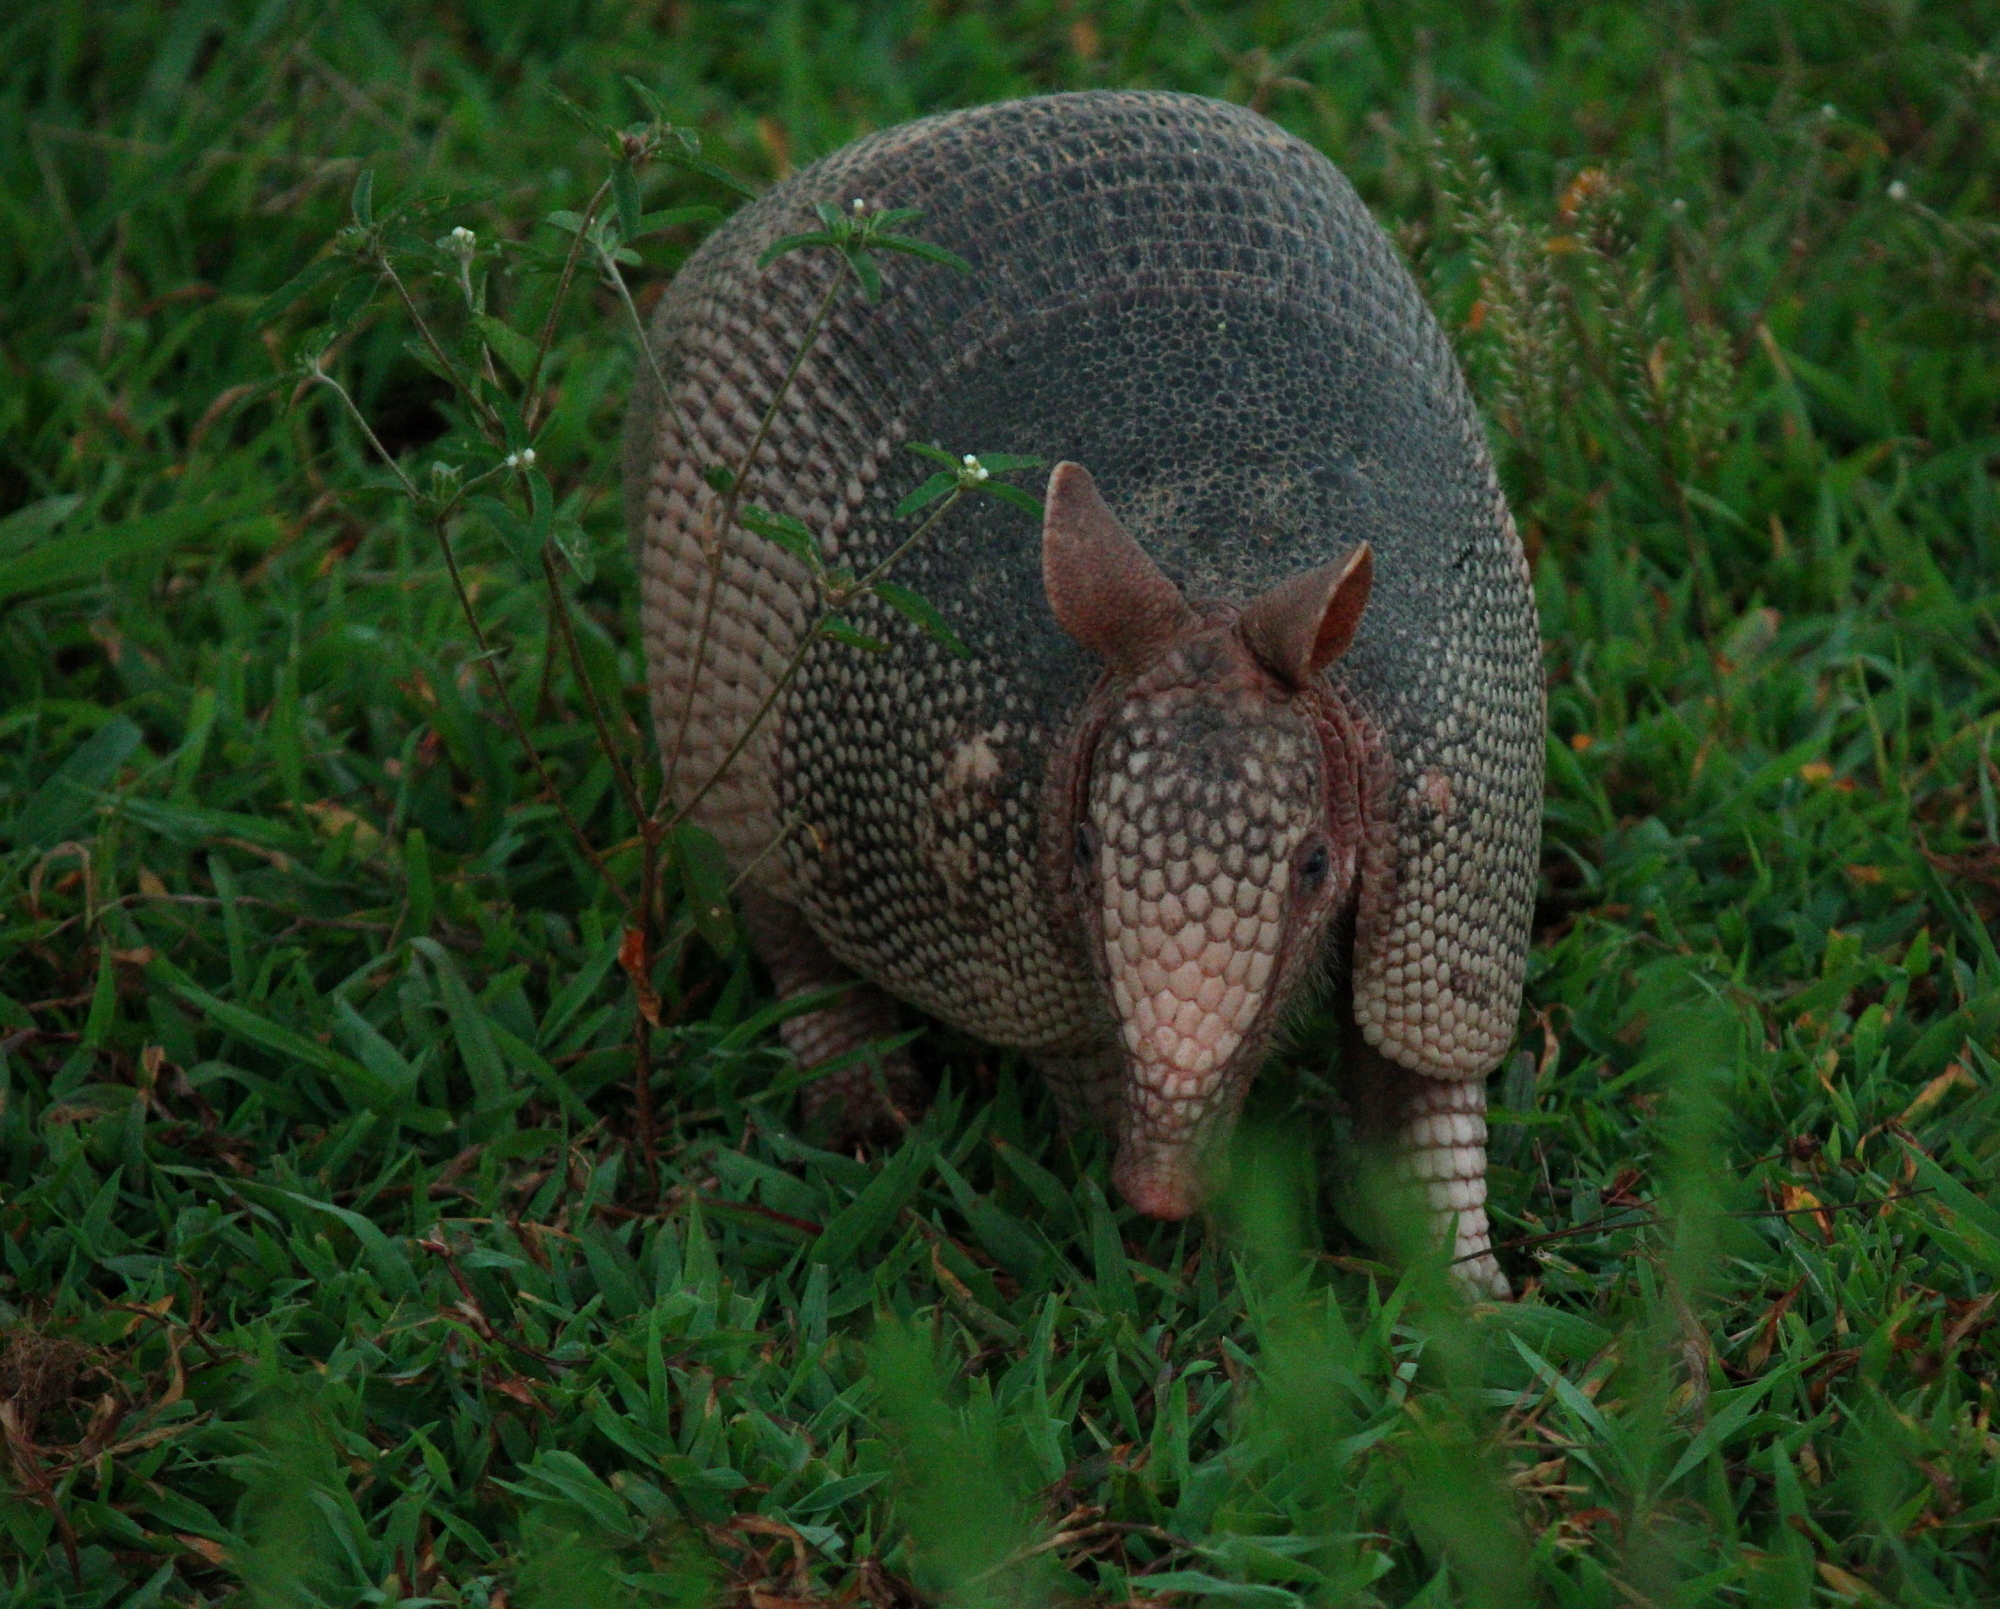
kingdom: Animalia
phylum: Chordata
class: Mammalia
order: Cingulata
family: Dasypodidae
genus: Dasypus
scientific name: Dasypus novemcinctus
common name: Nine-banded armadillo
